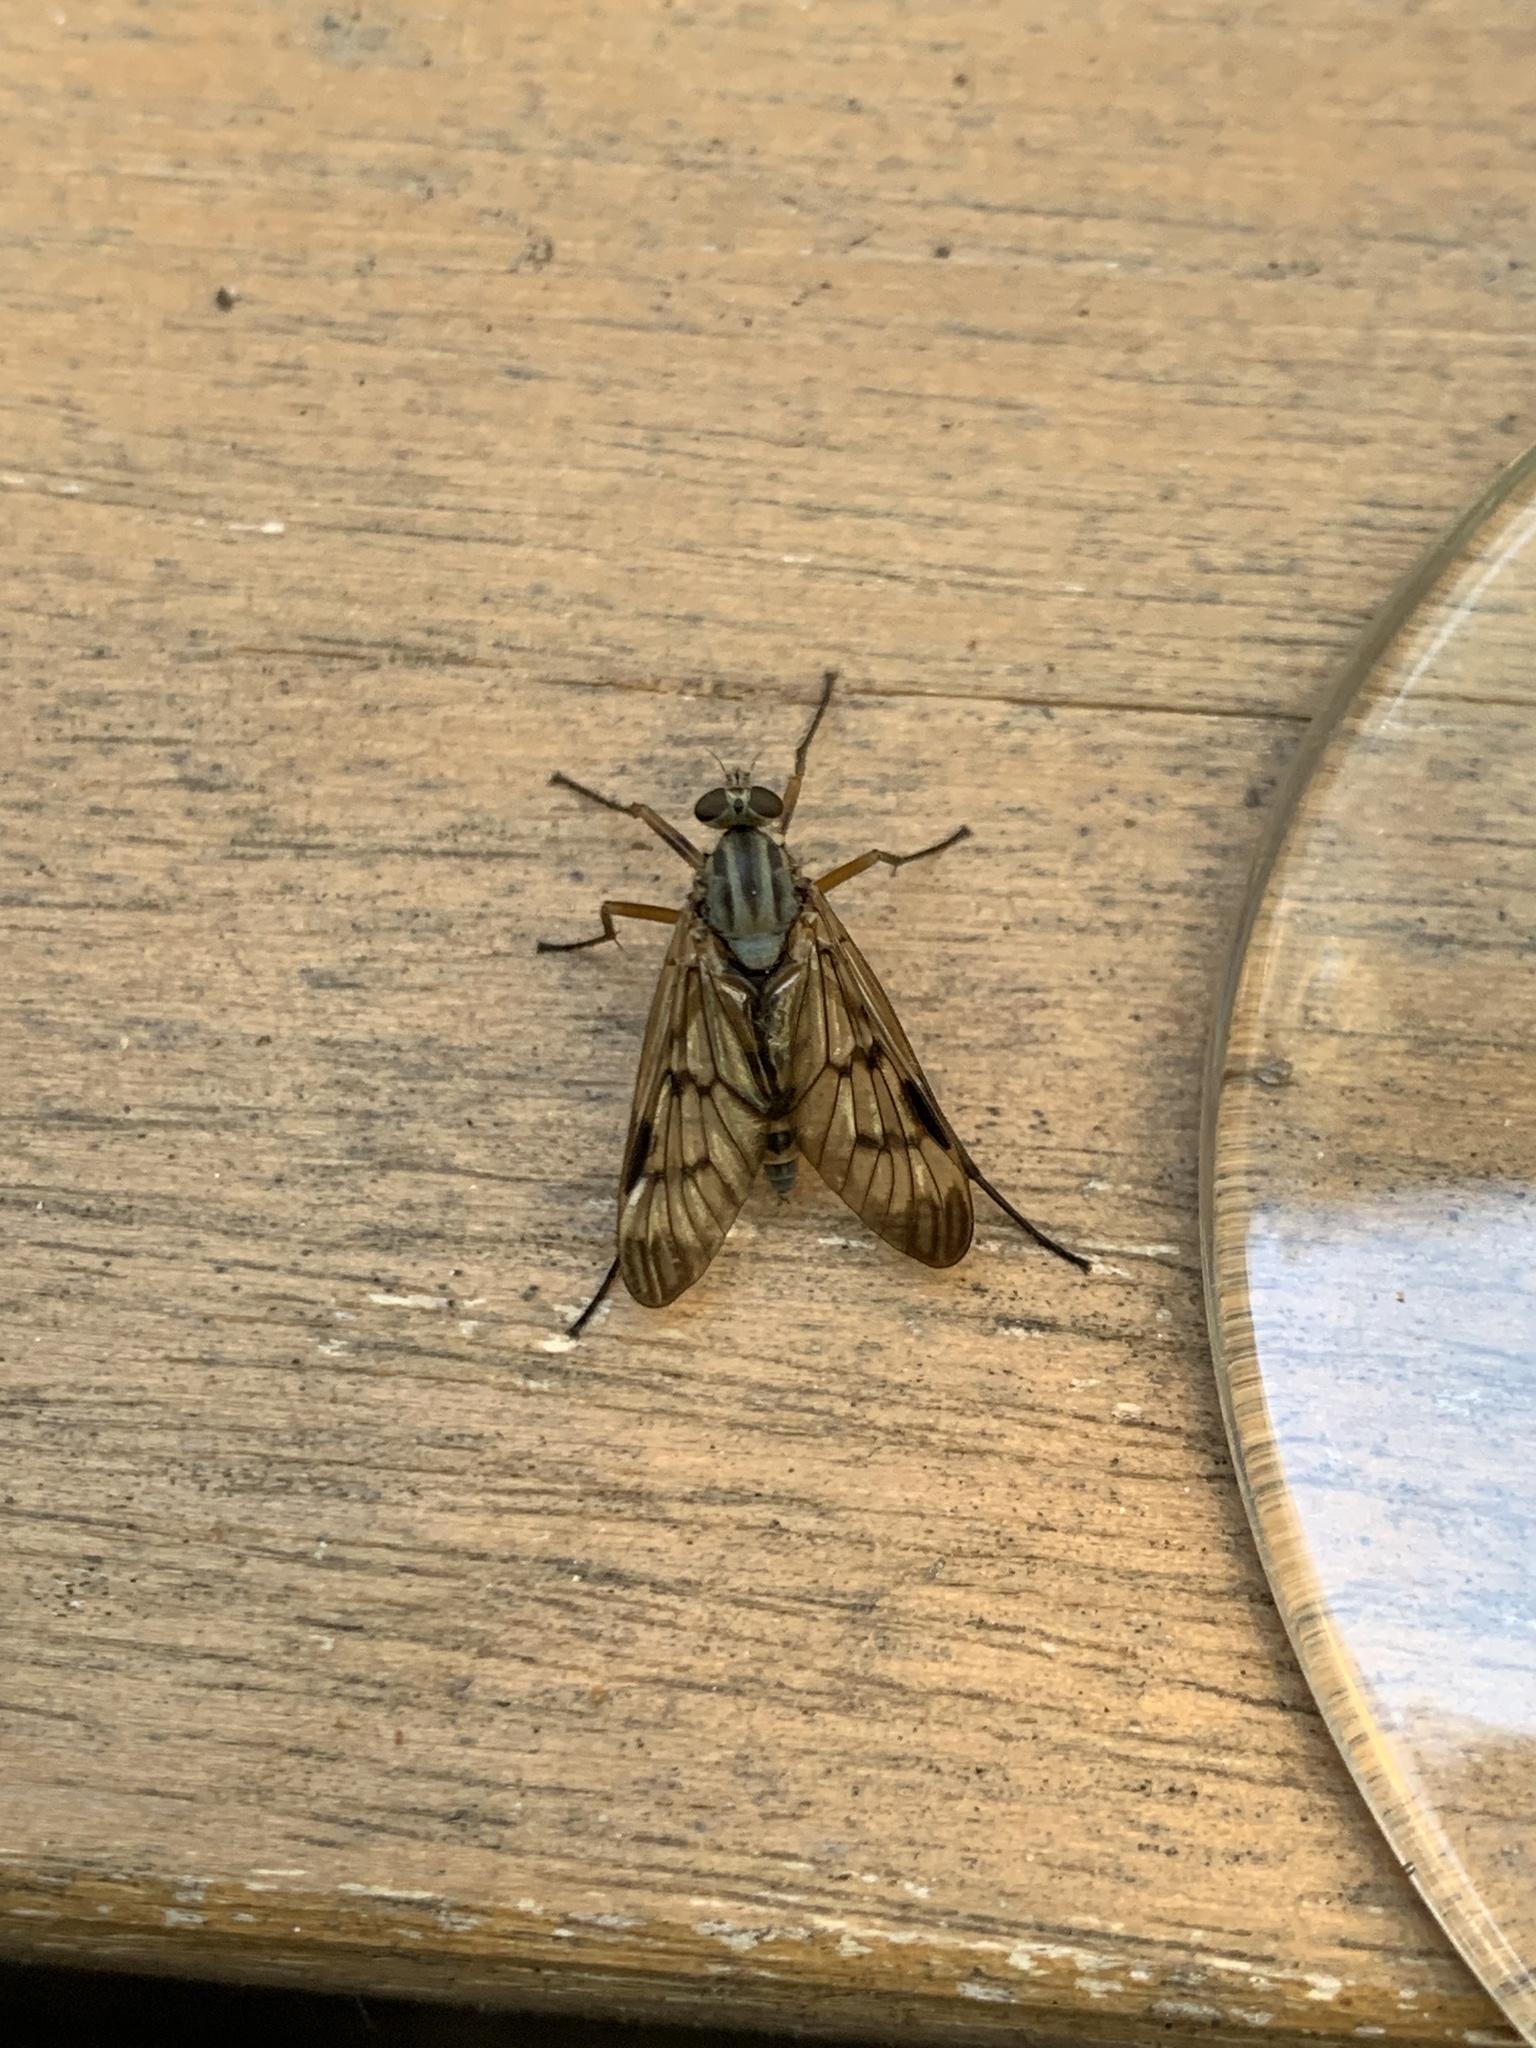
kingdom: Animalia
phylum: Arthropoda
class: Insecta
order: Diptera
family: Rhagionidae
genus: Rhagio
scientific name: Rhagio scolopacea
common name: Downlooker snipefly
